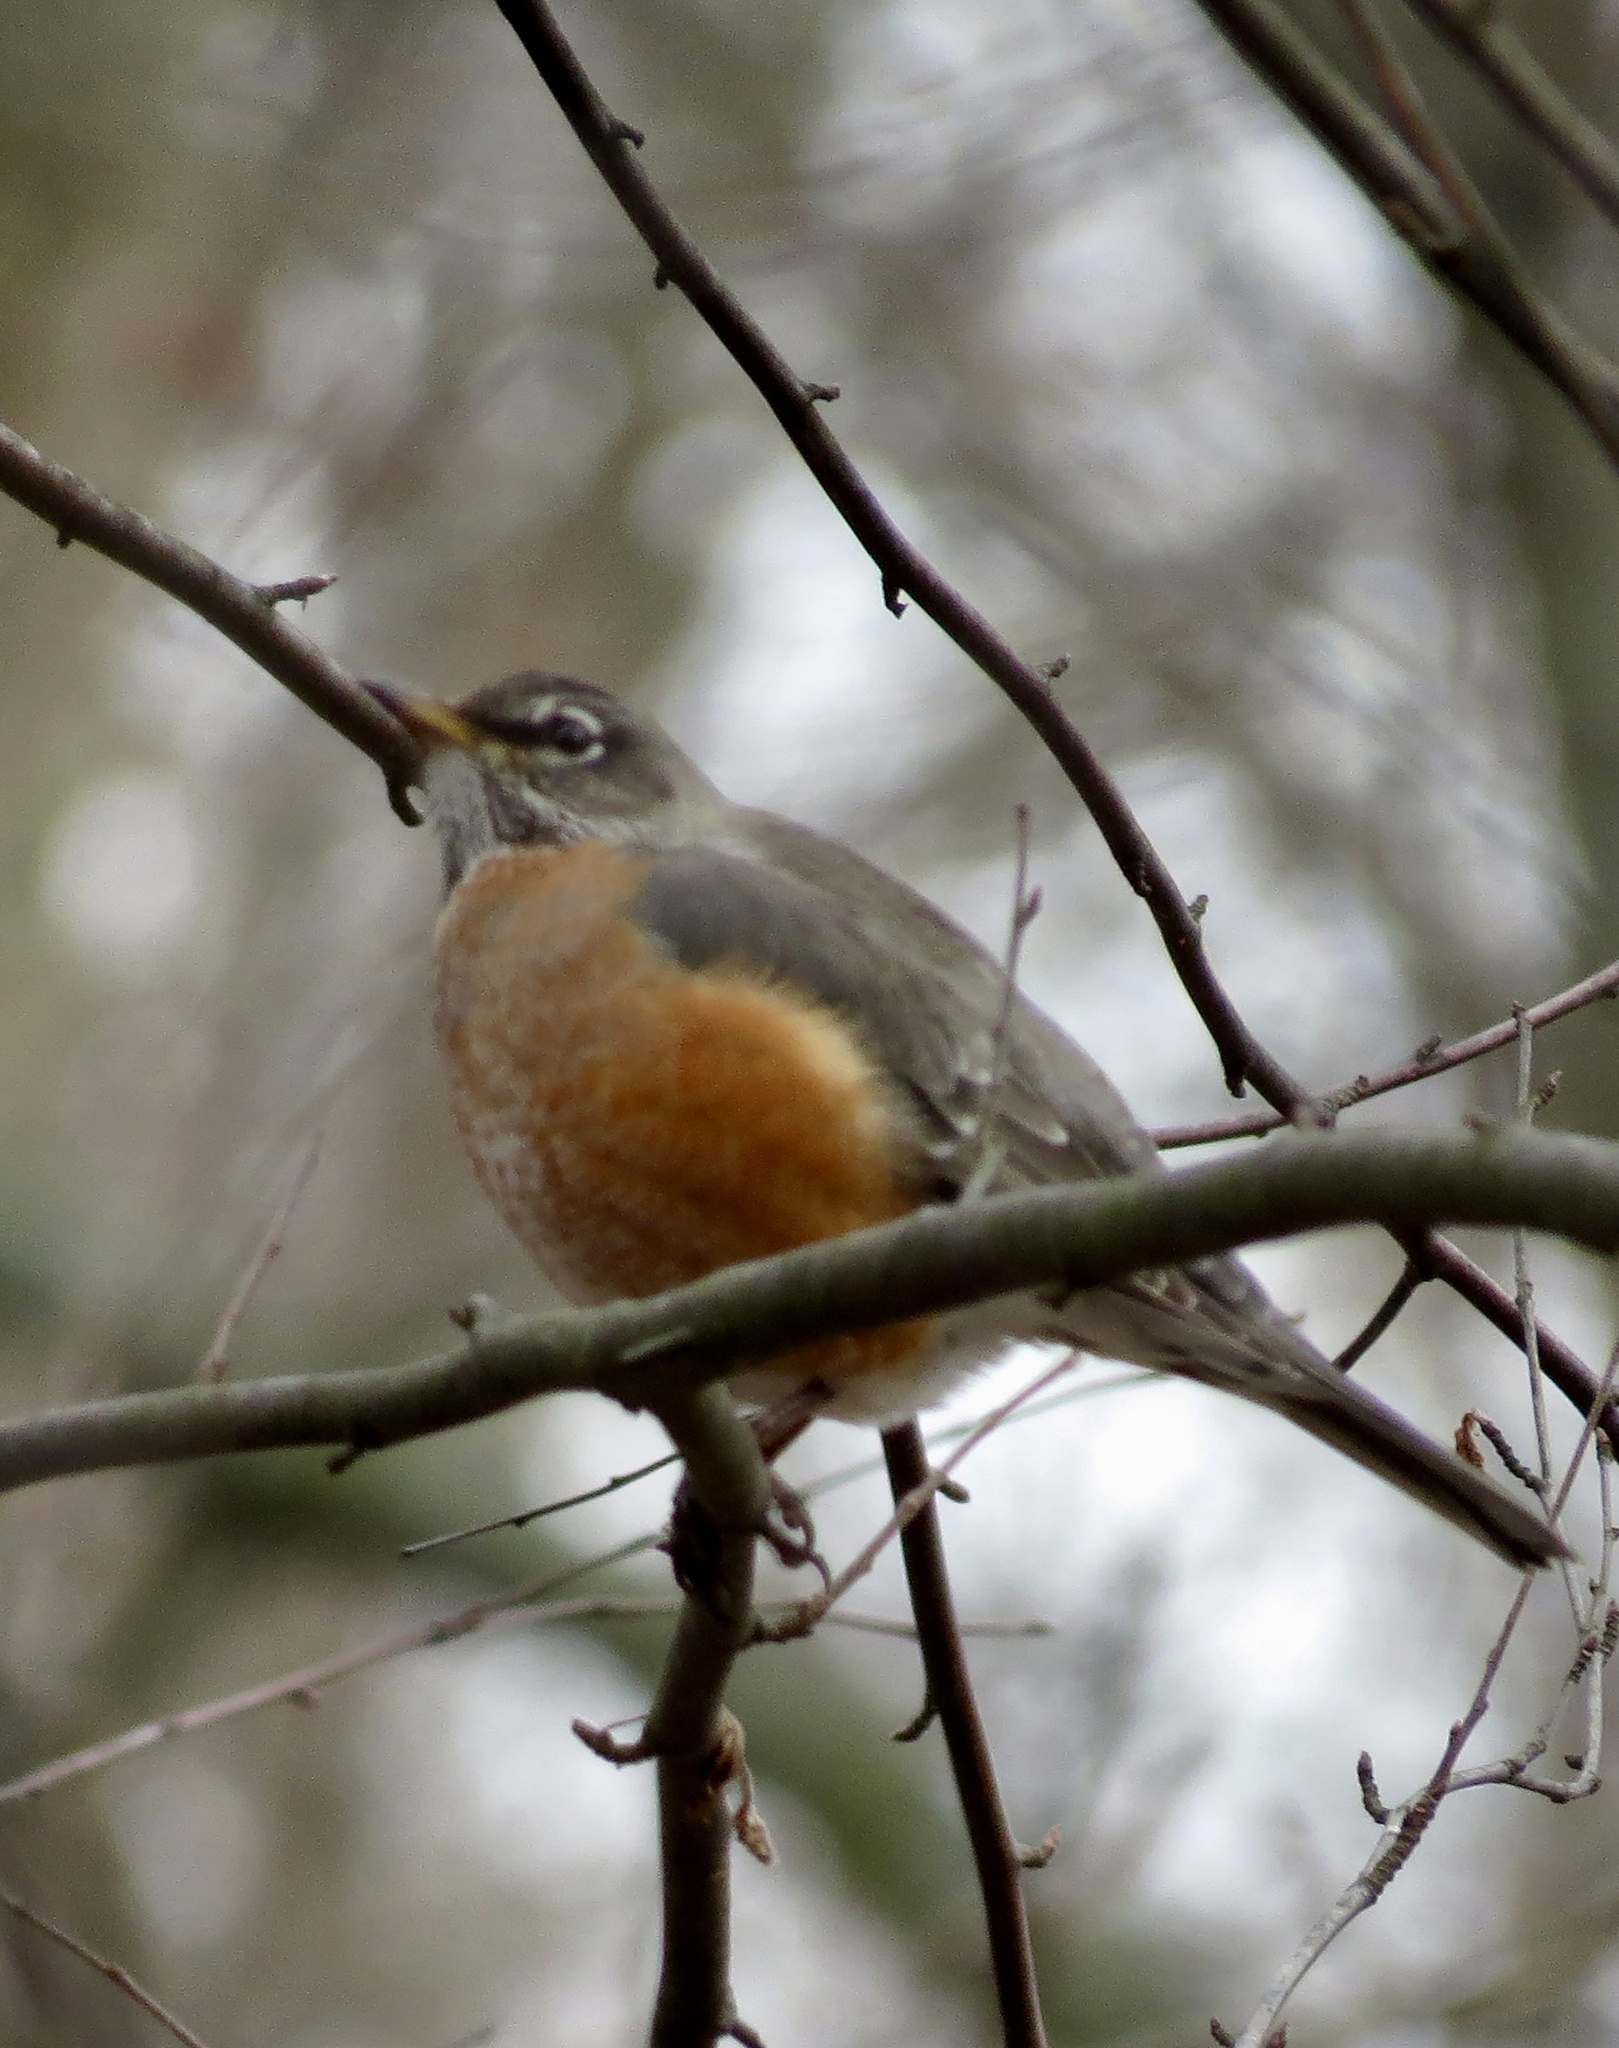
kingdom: Animalia
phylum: Chordata
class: Aves
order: Passeriformes
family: Turdidae
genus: Turdus
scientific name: Turdus migratorius
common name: American robin
